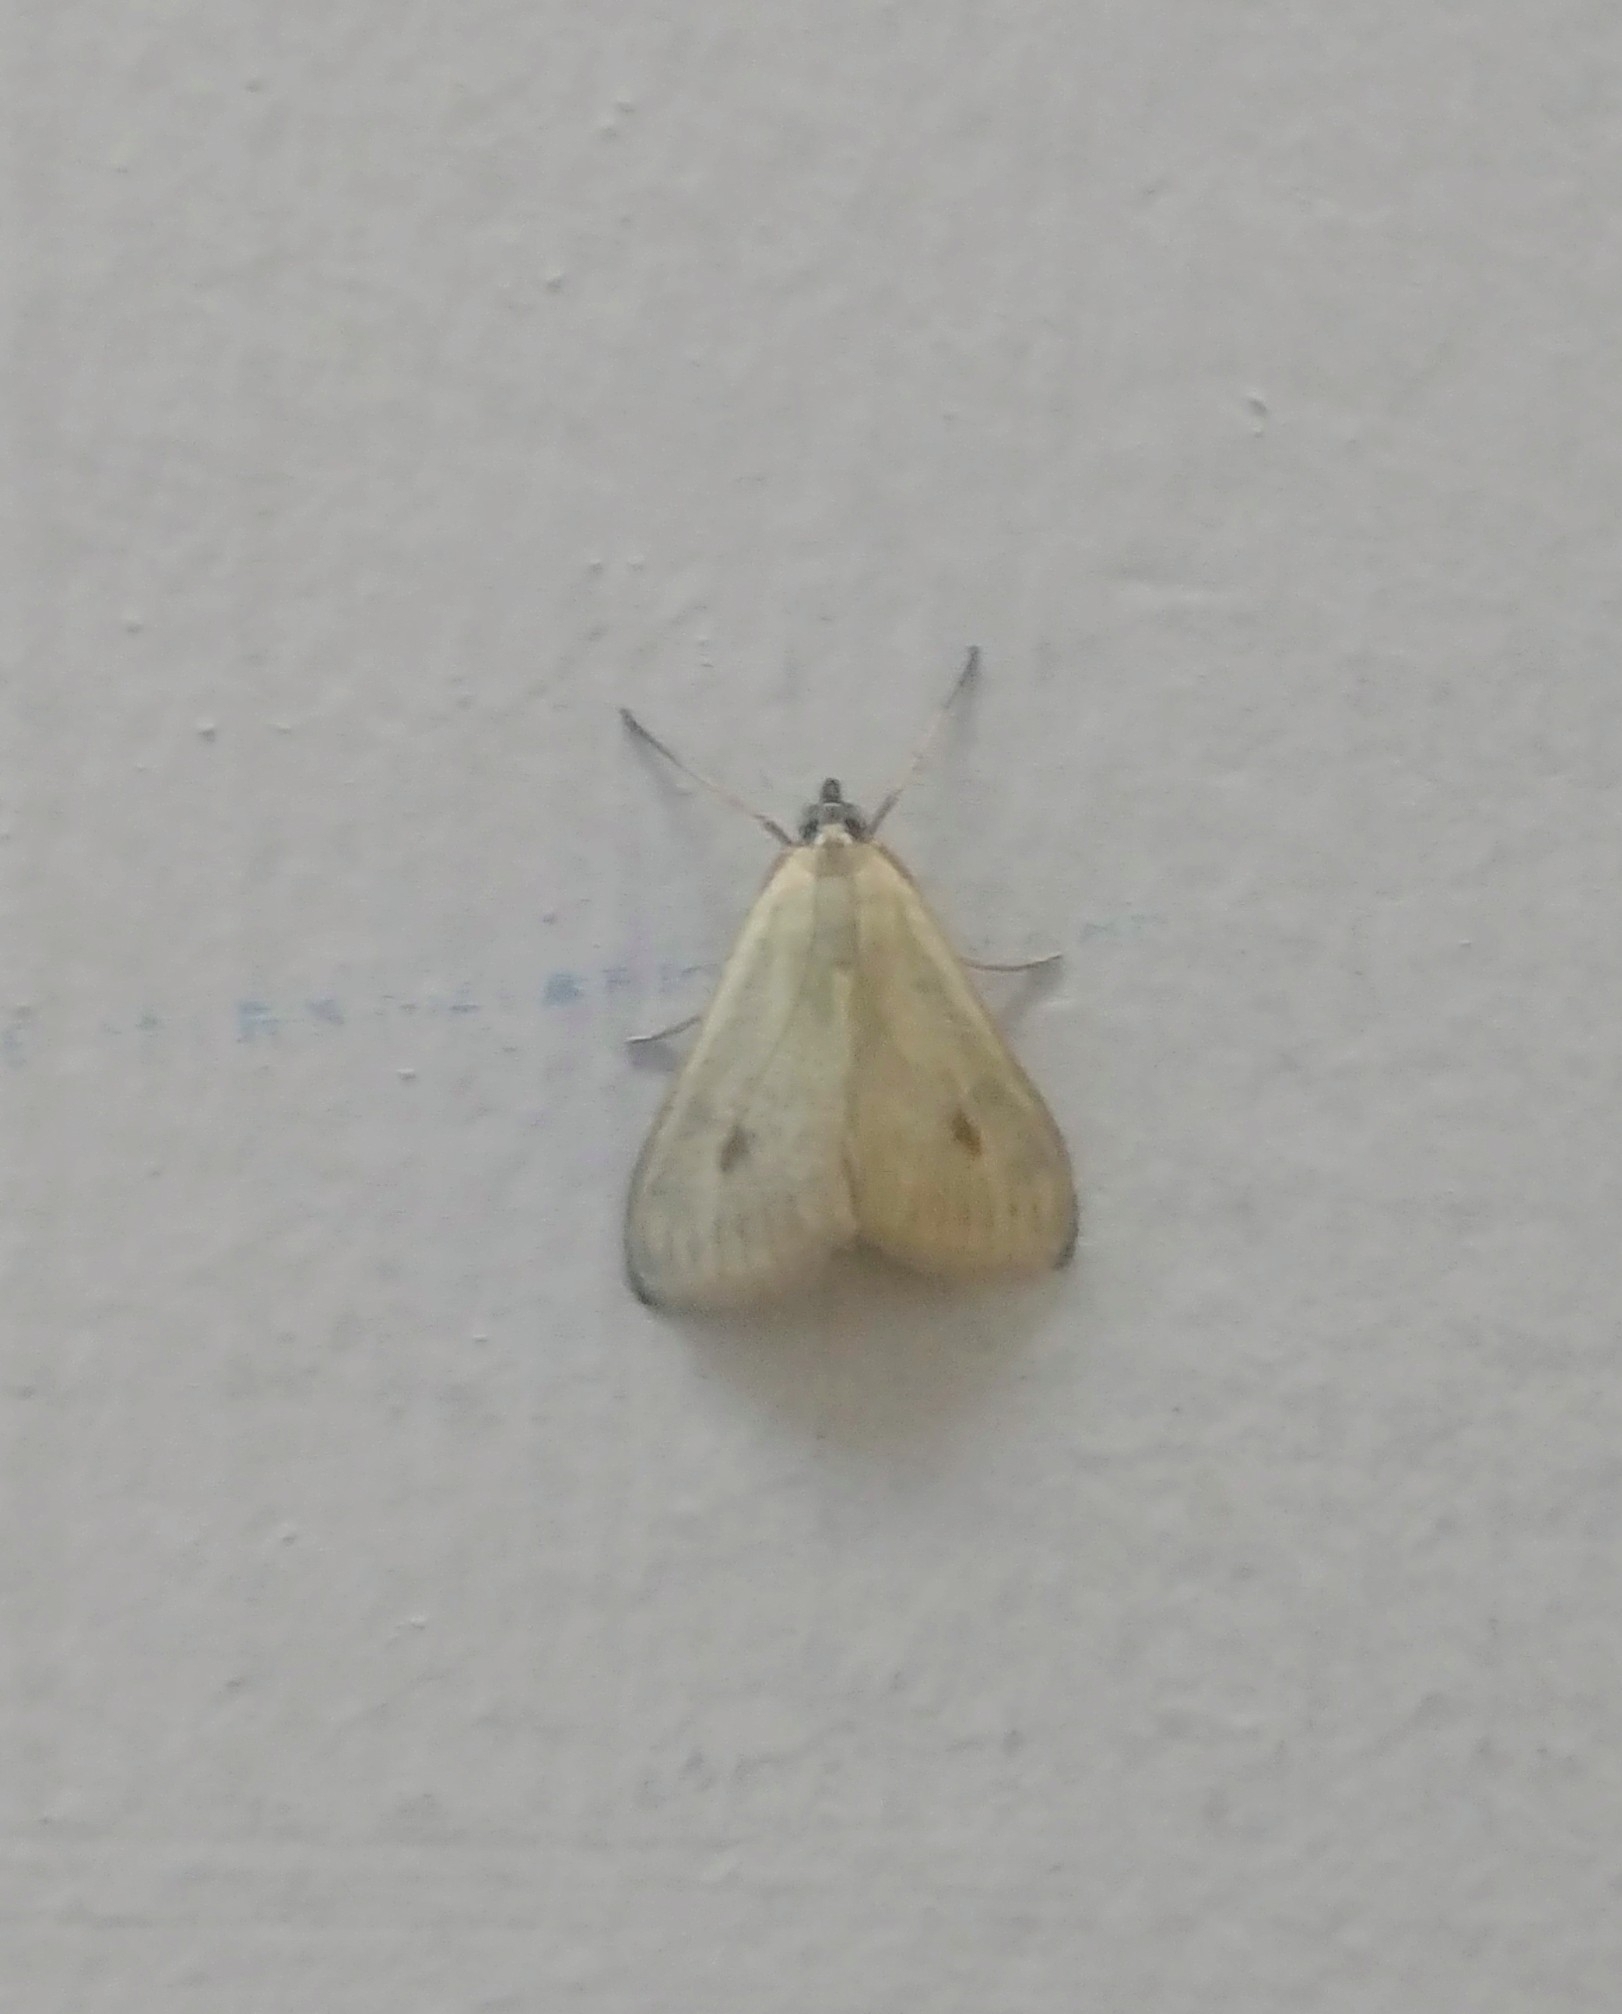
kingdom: Animalia
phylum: Arthropoda
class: Insecta
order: Lepidoptera
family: Crambidae
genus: Sitochroa
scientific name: Sitochroa palealis
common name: Greenish-yellow sitochroa moth
